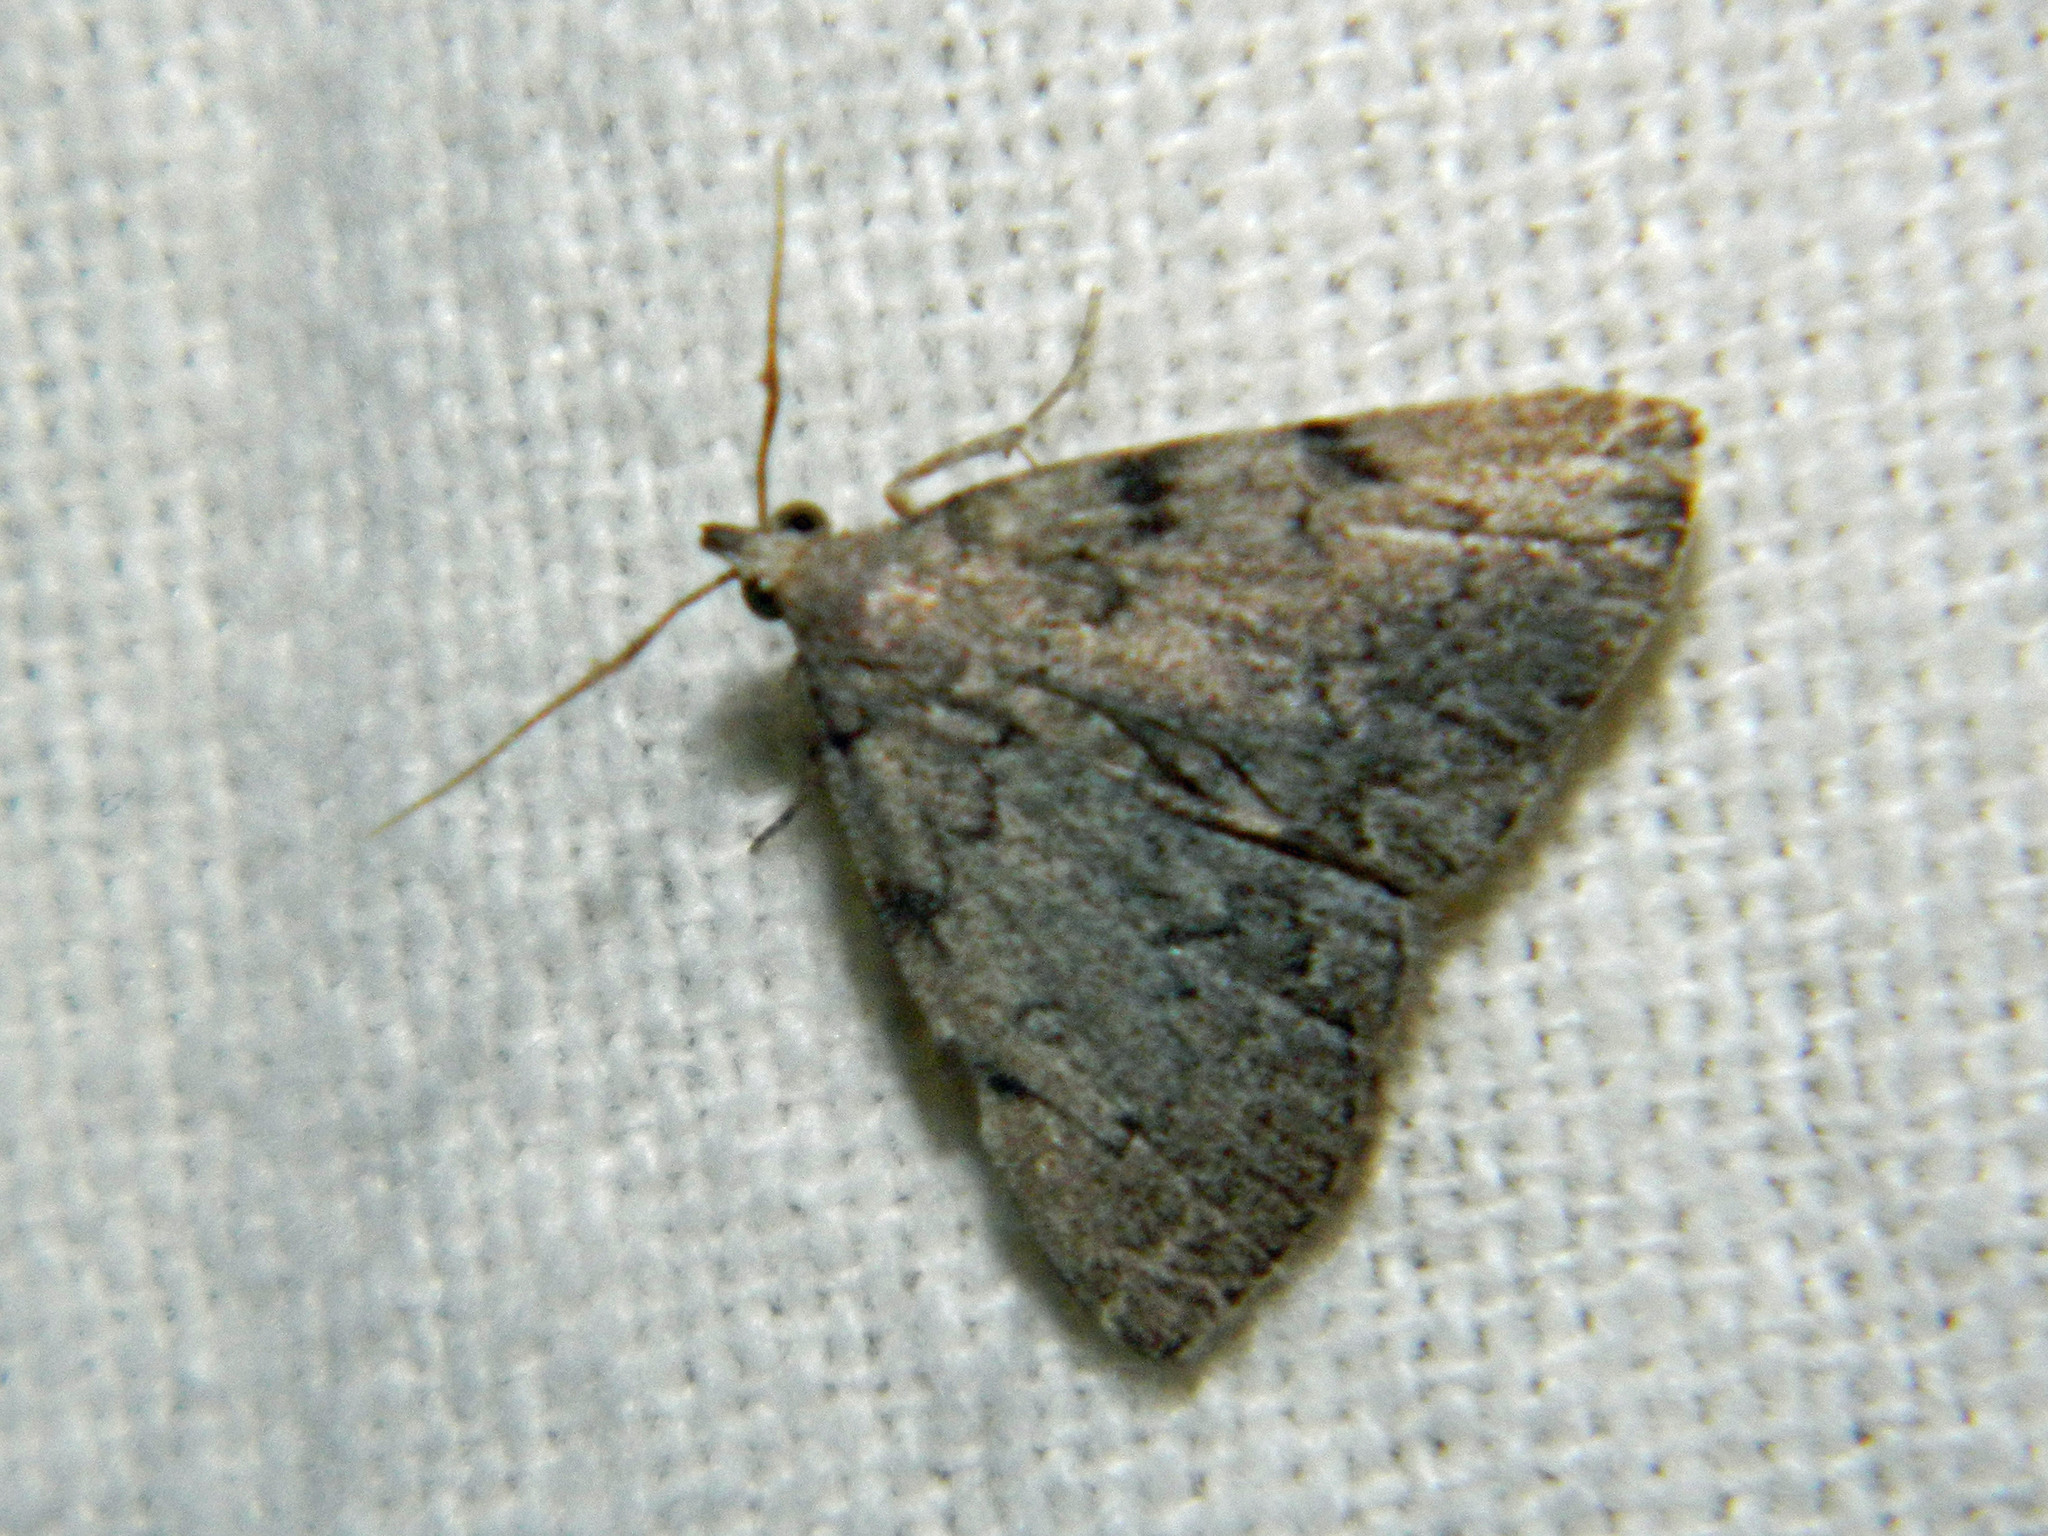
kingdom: Animalia
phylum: Arthropoda
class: Insecta
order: Lepidoptera
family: Erebidae
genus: Zanclognatha
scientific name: Zanclognatha theralis
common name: Flagged fan-foot
